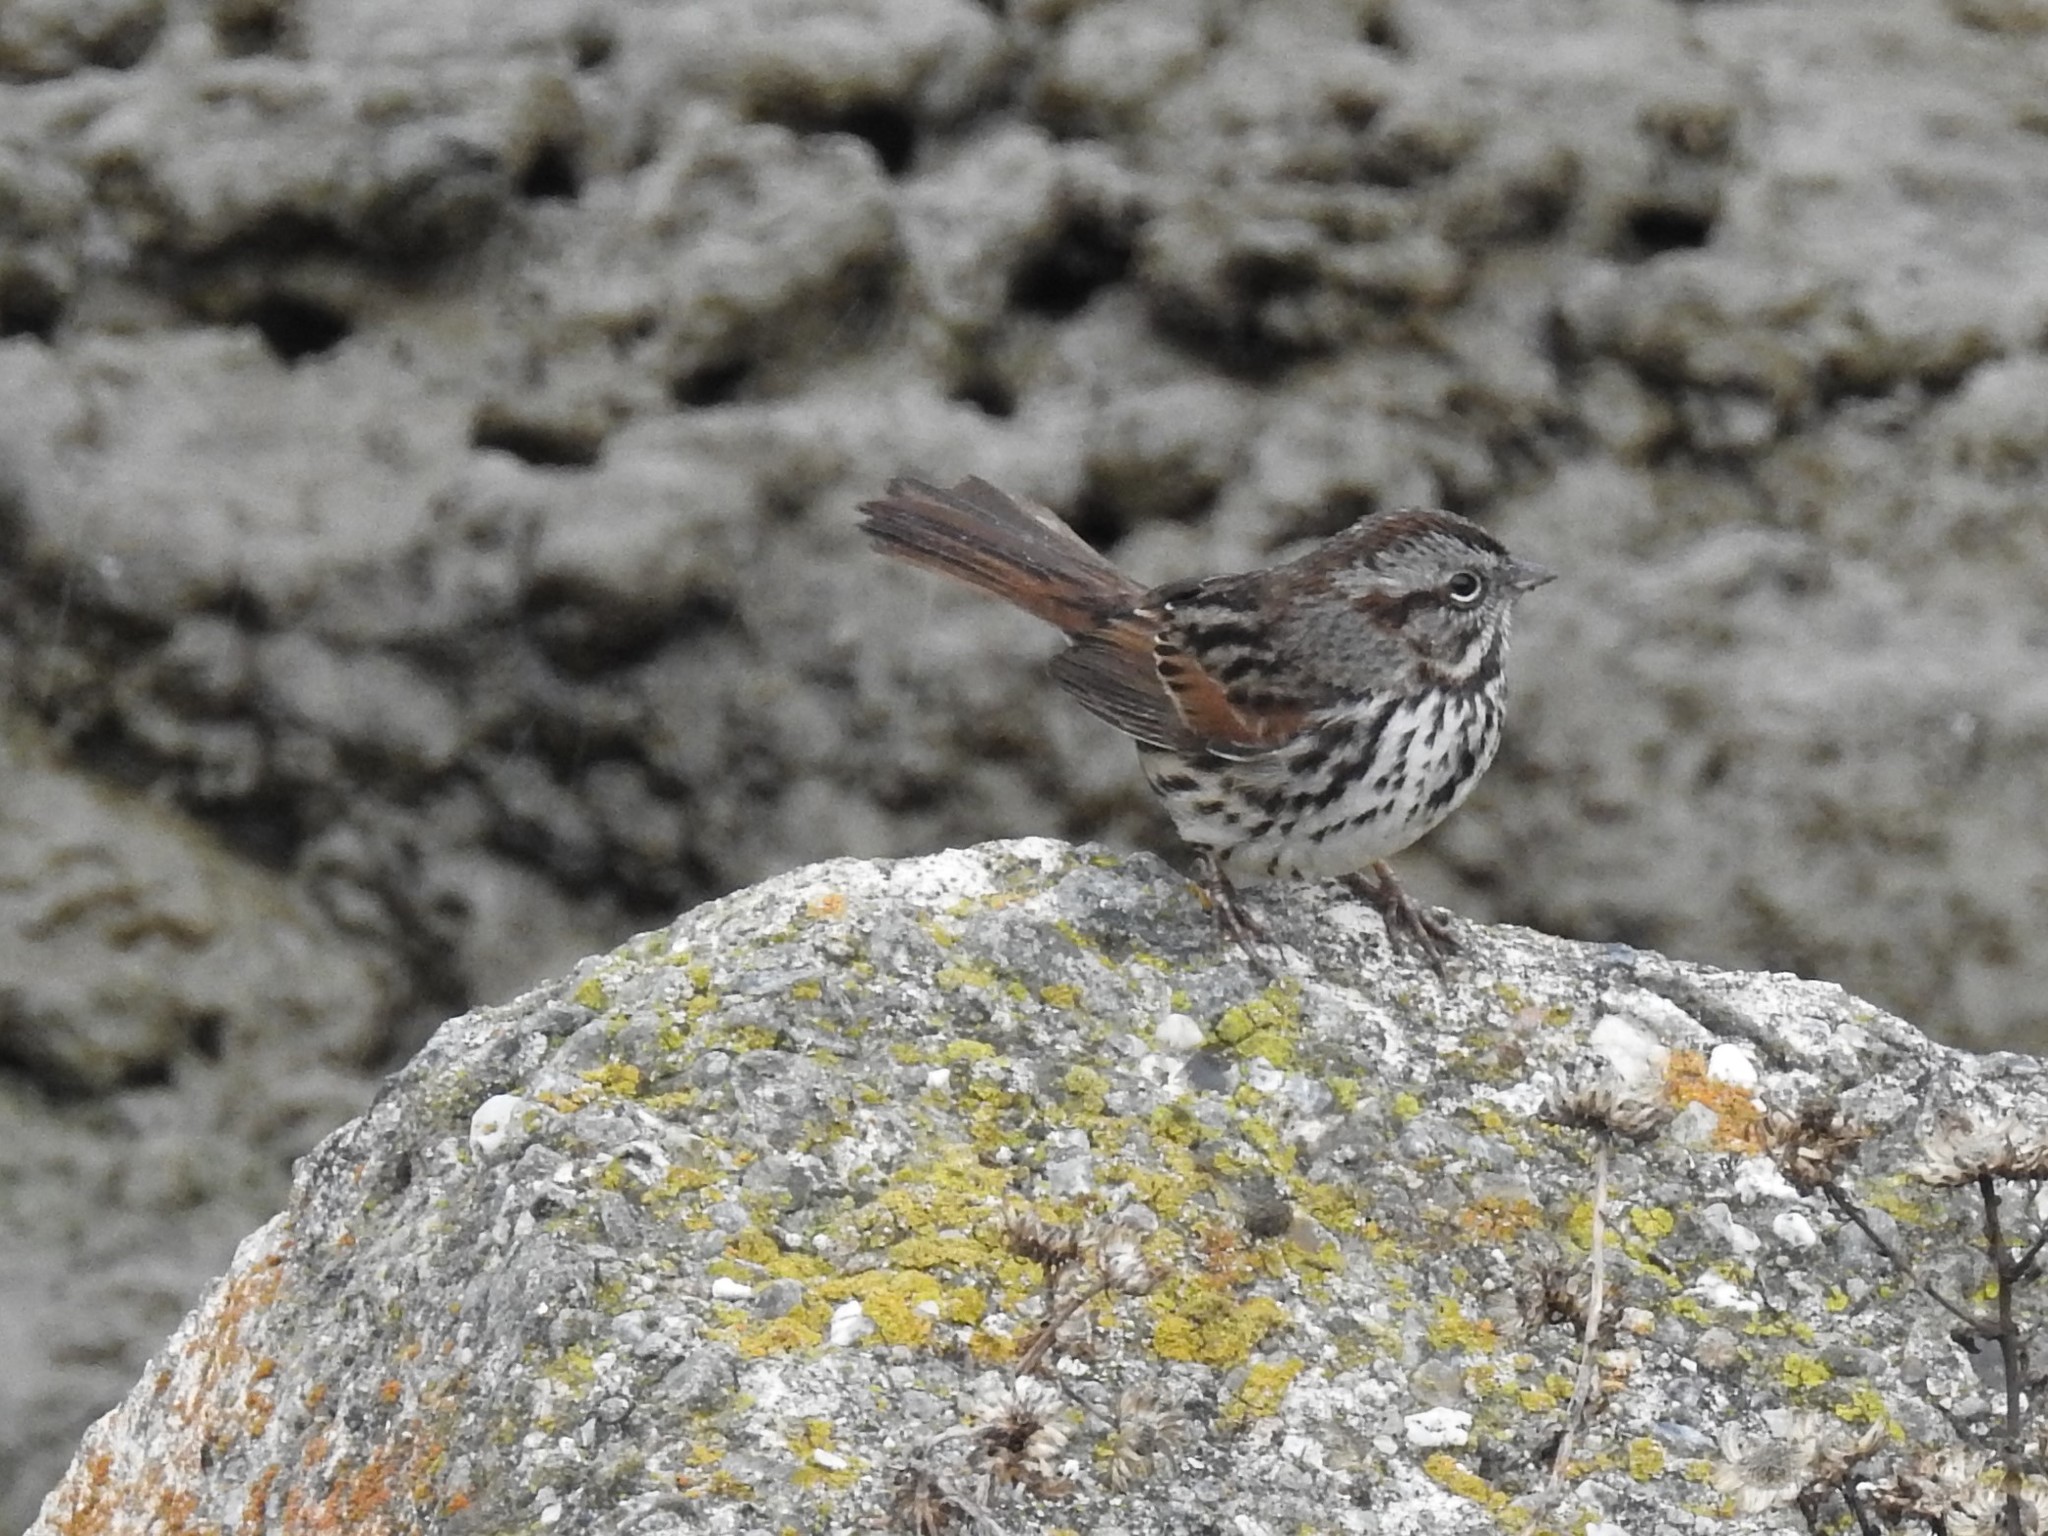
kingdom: Animalia
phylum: Chordata
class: Aves
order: Passeriformes
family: Passerellidae
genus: Melospiza
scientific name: Melospiza melodia
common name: Song sparrow
